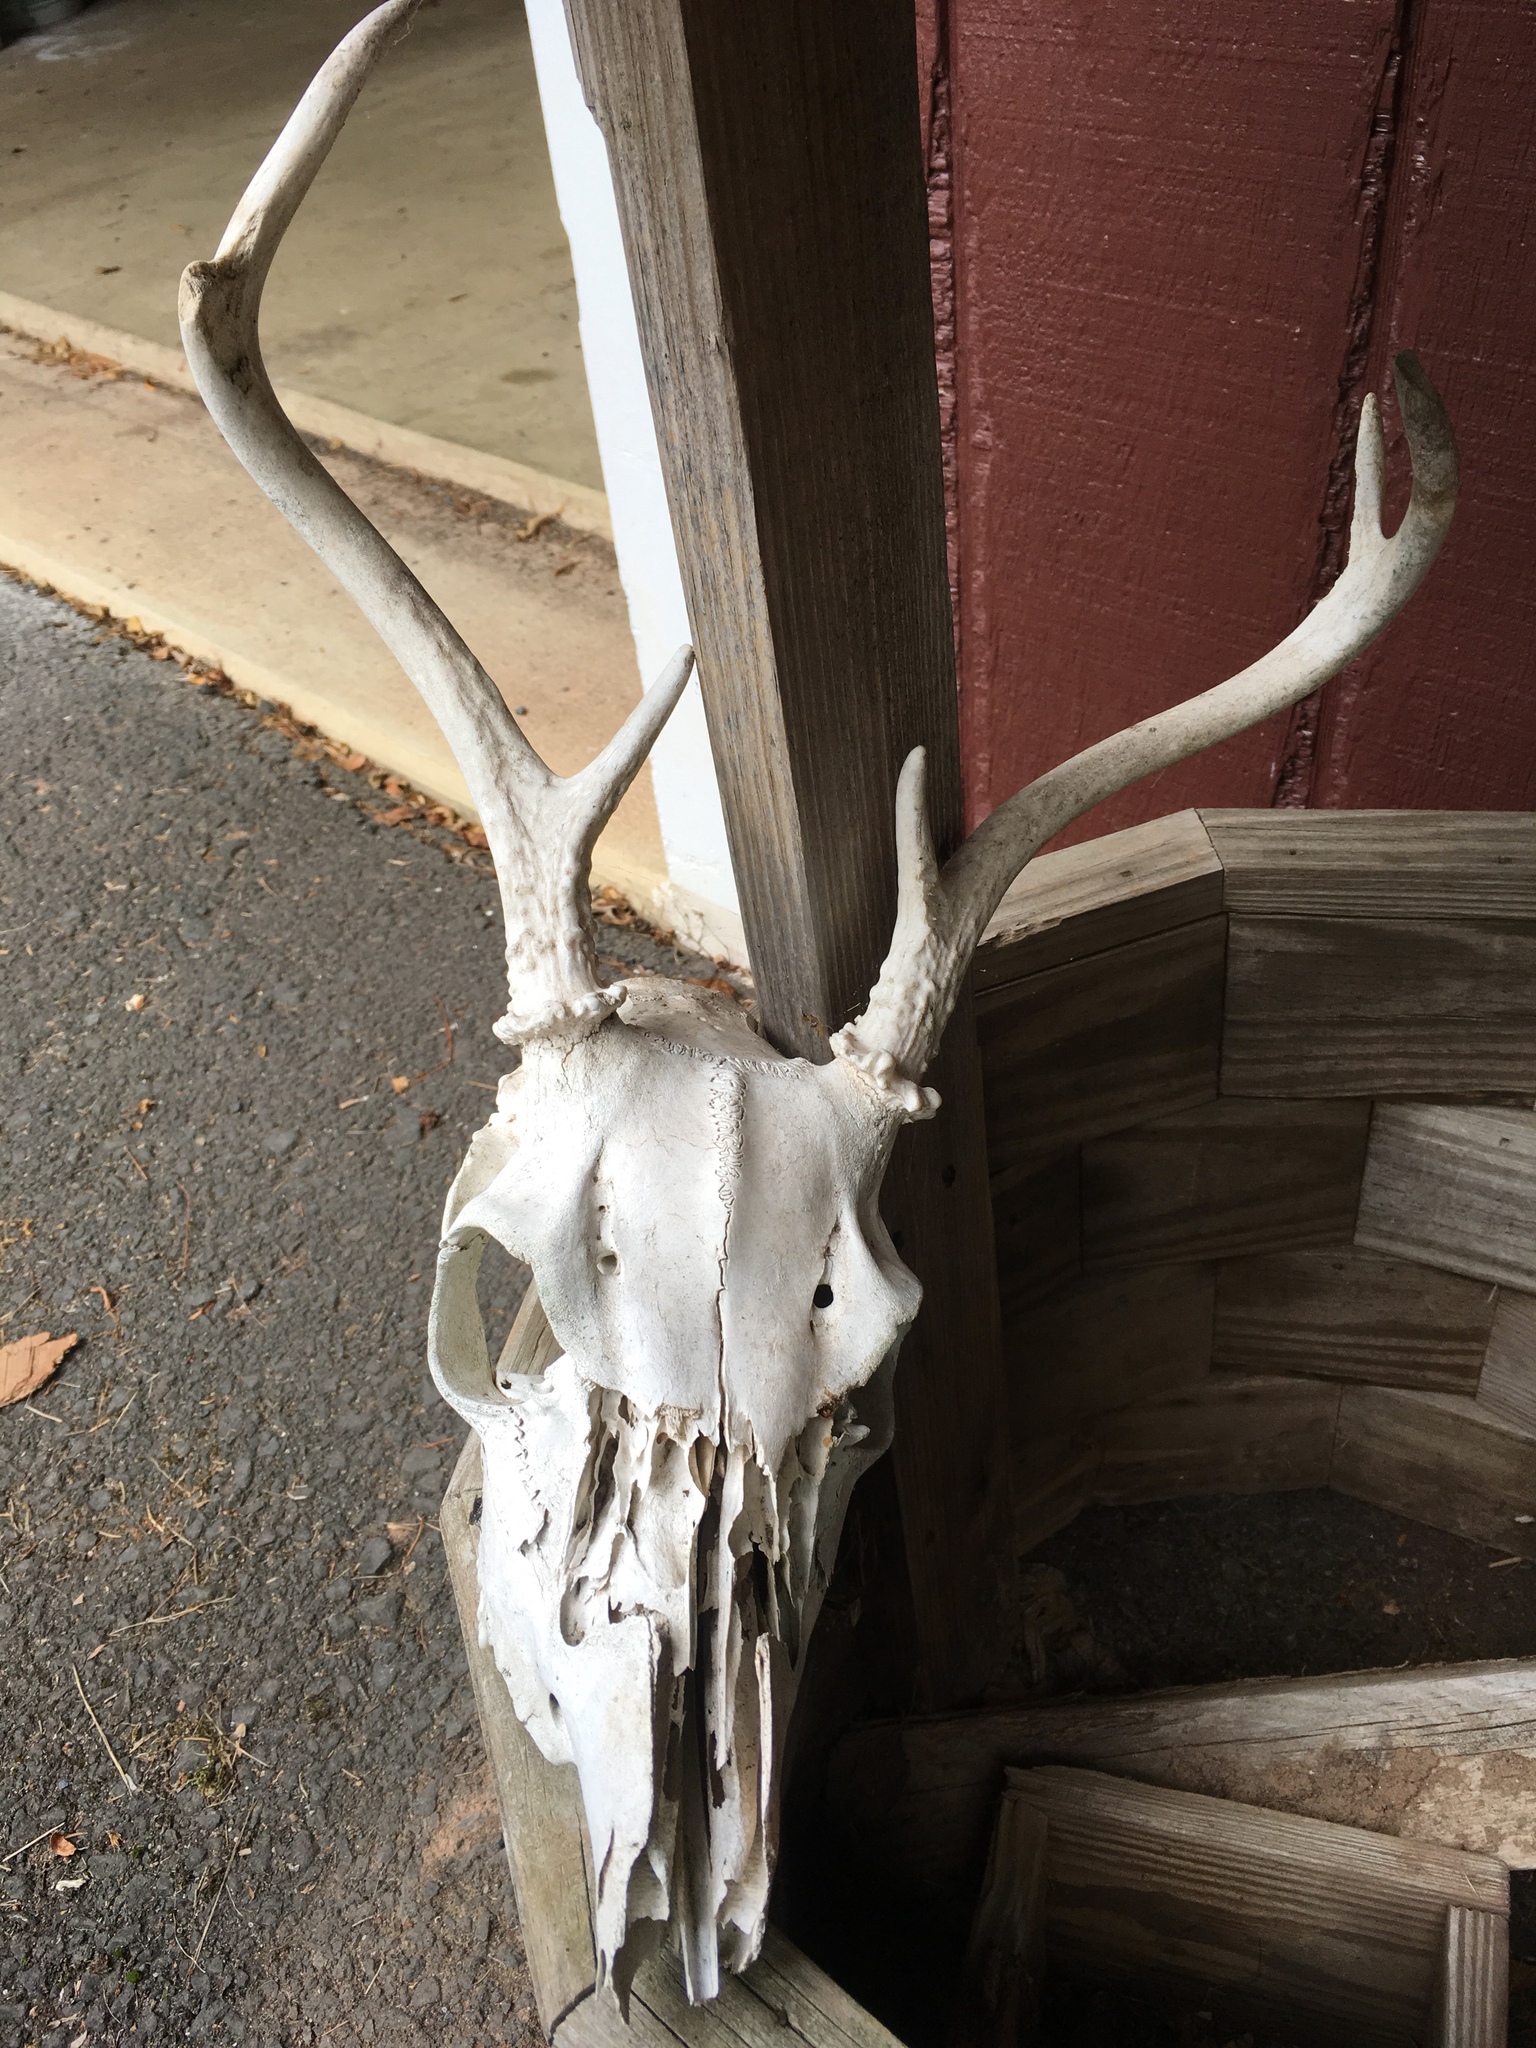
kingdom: Animalia
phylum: Chordata
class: Mammalia
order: Artiodactyla
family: Cervidae
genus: Odocoileus
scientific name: Odocoileus virginianus
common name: White-tailed deer
